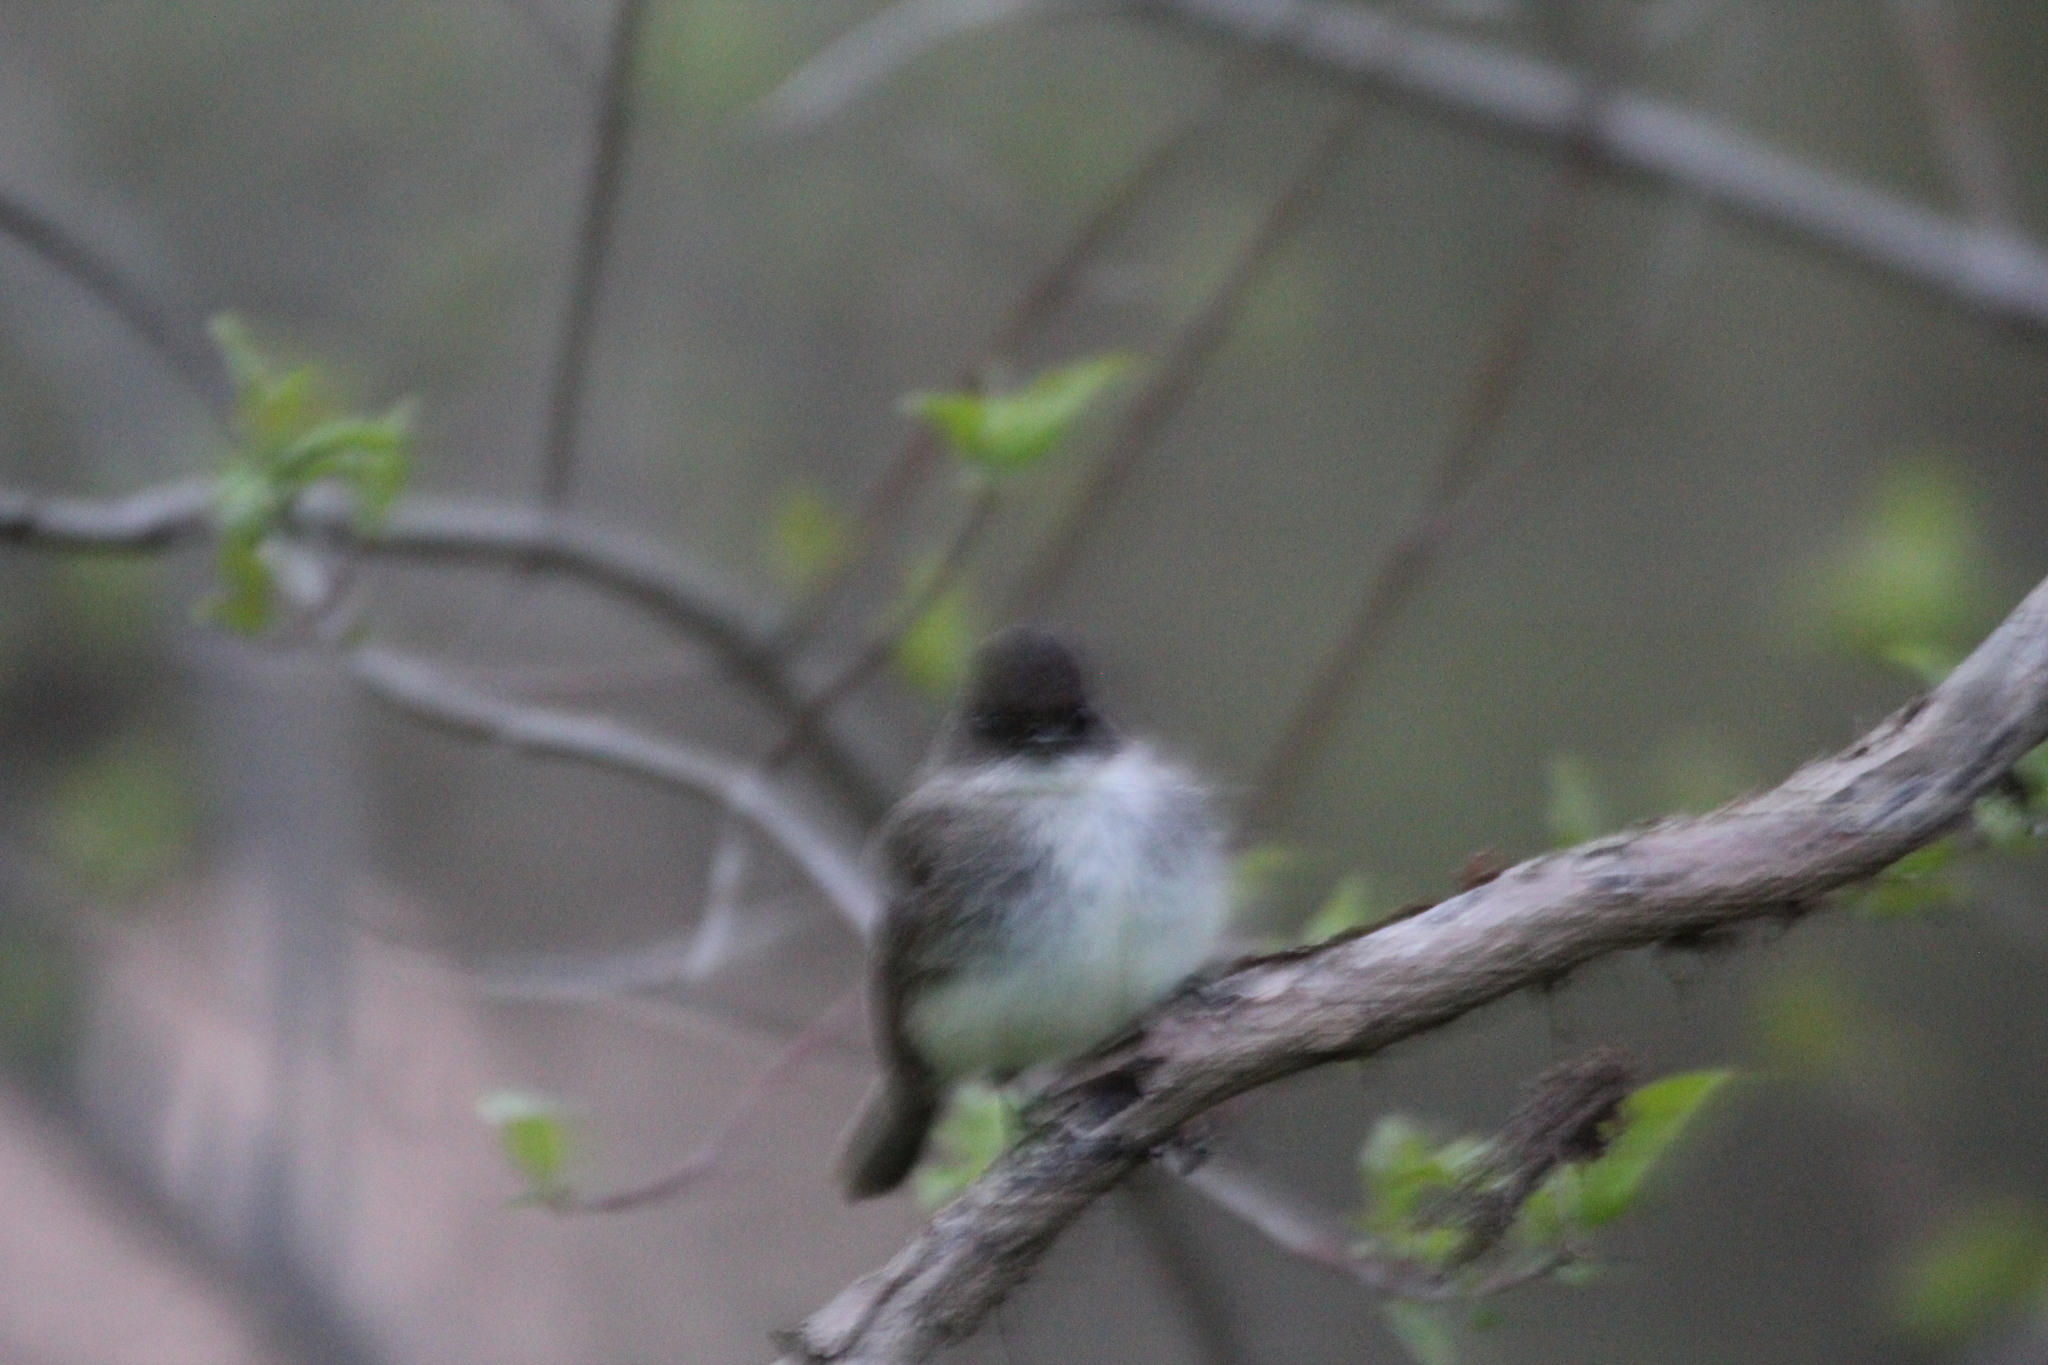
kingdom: Animalia
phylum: Chordata
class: Aves
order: Passeriformes
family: Tyrannidae
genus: Sayornis
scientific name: Sayornis phoebe
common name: Eastern phoebe
